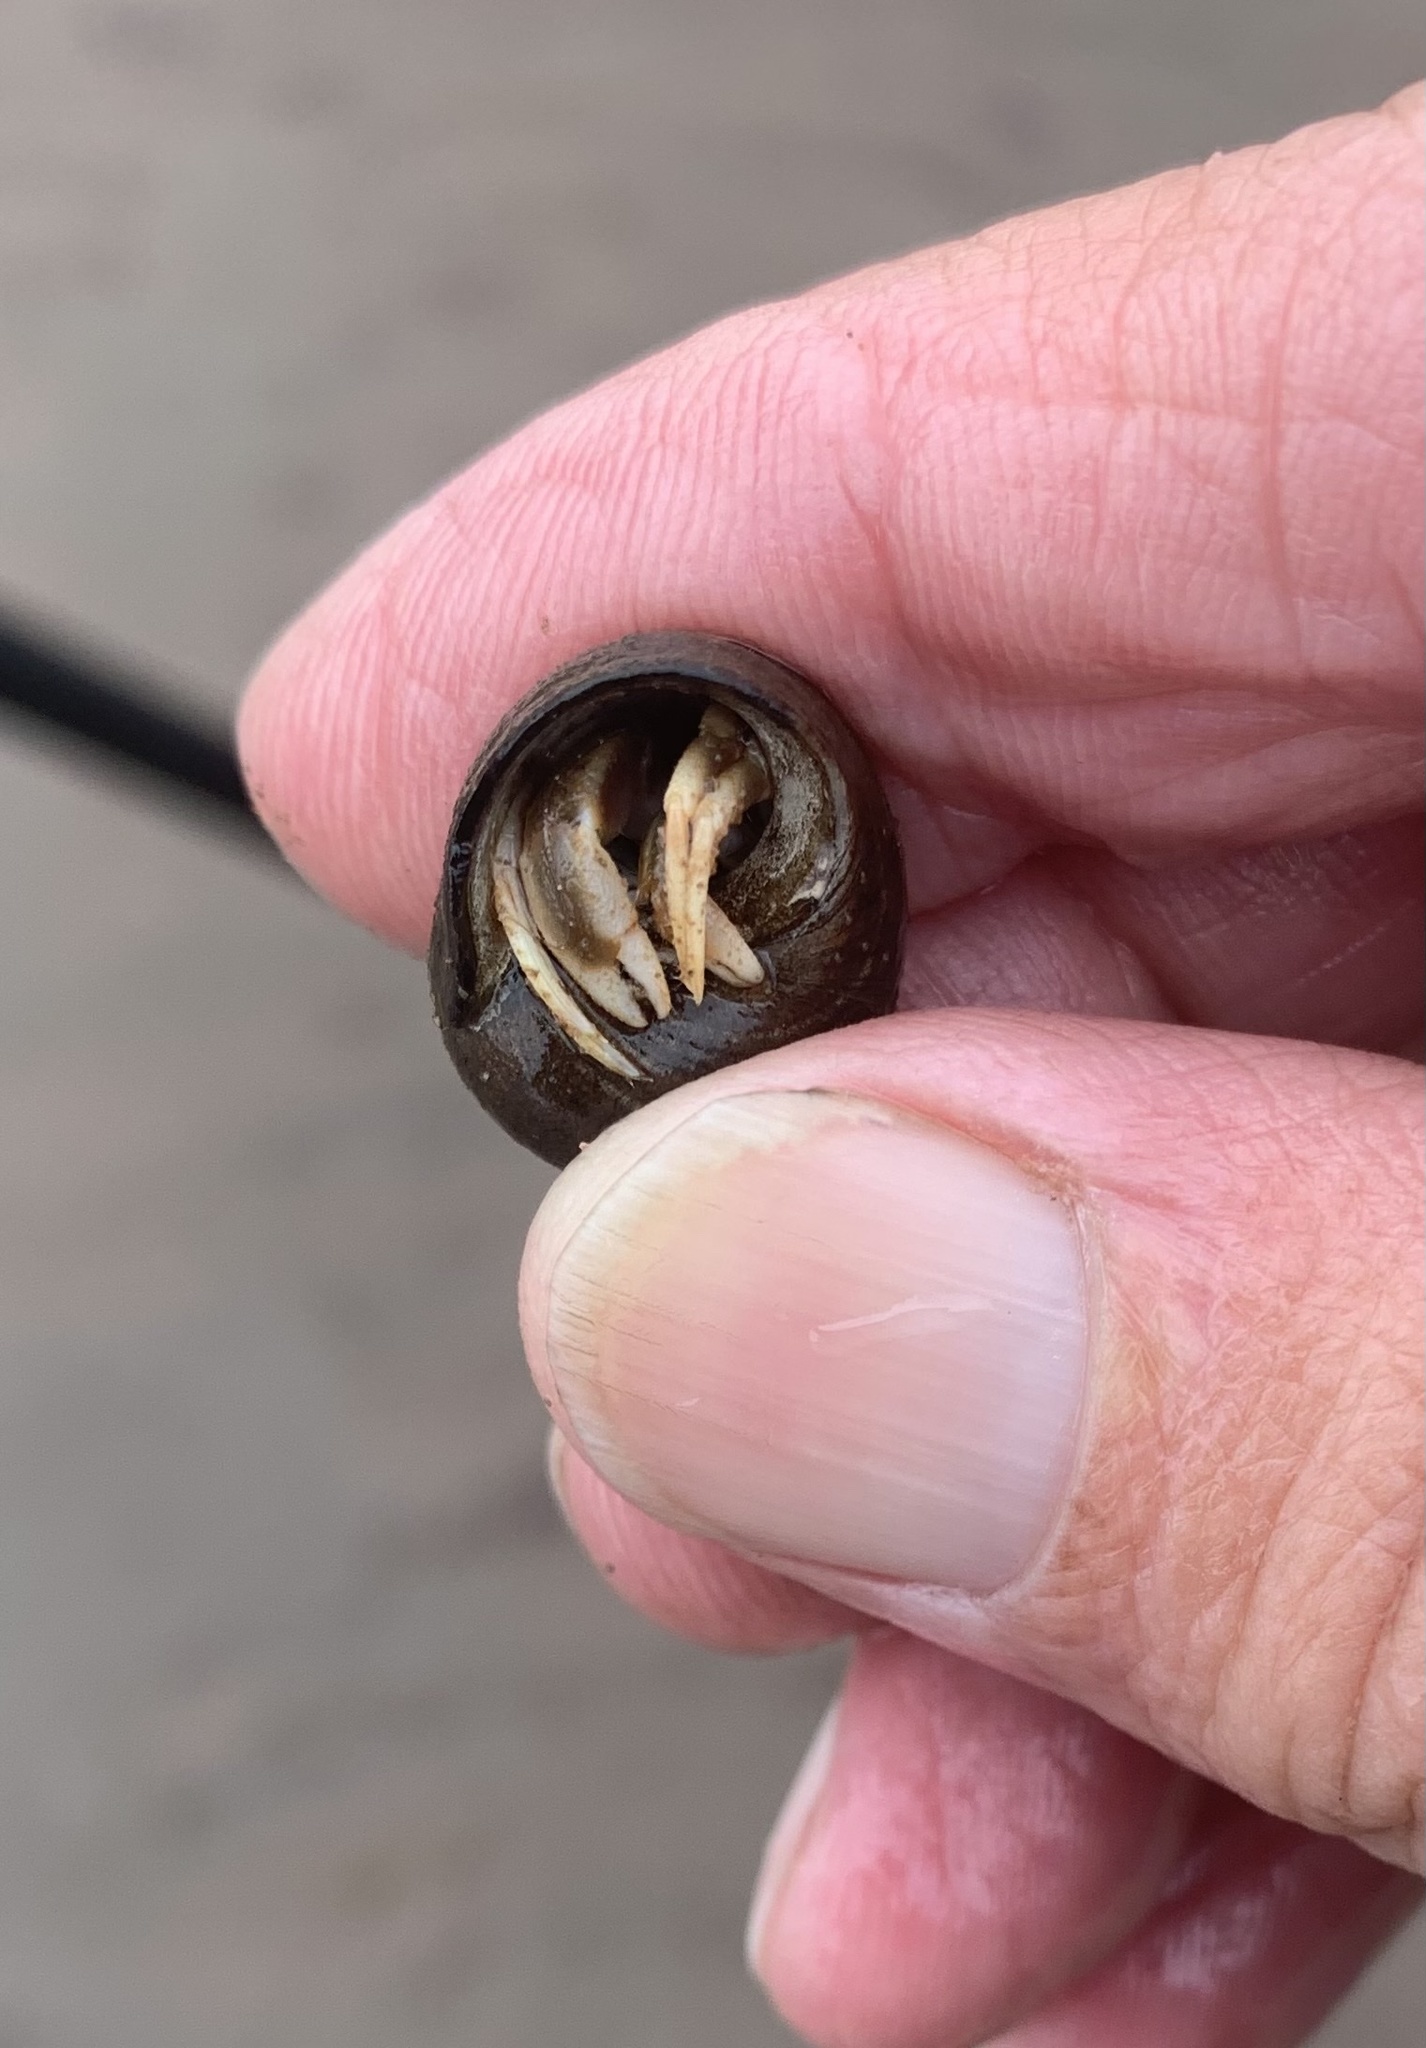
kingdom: Animalia
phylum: Arthropoda
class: Malacostraca
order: Decapoda
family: Paguridae
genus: Pagurus
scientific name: Pagurus longicarpus
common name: Long-armed hermit crab
